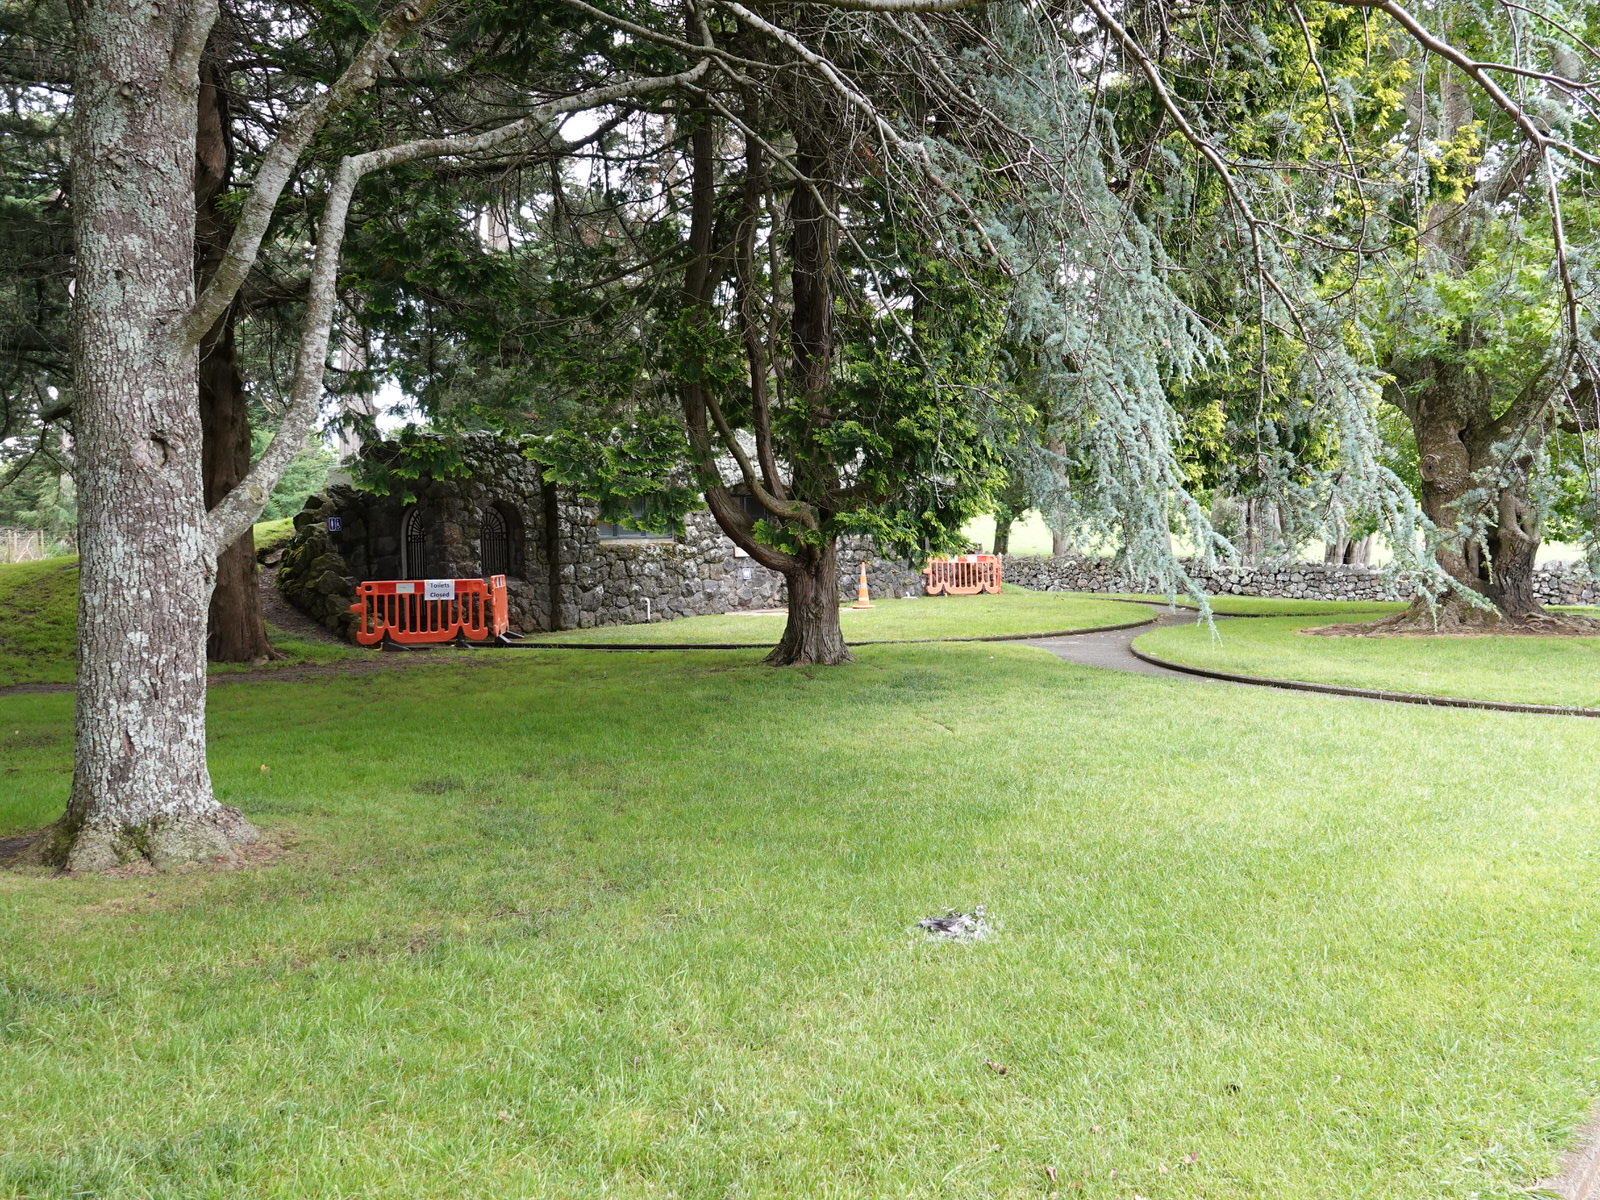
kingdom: Animalia
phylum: Chordata
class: Aves
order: Columbiformes
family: Columbidae
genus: Columba
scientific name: Columba livia
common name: Rock pigeon
